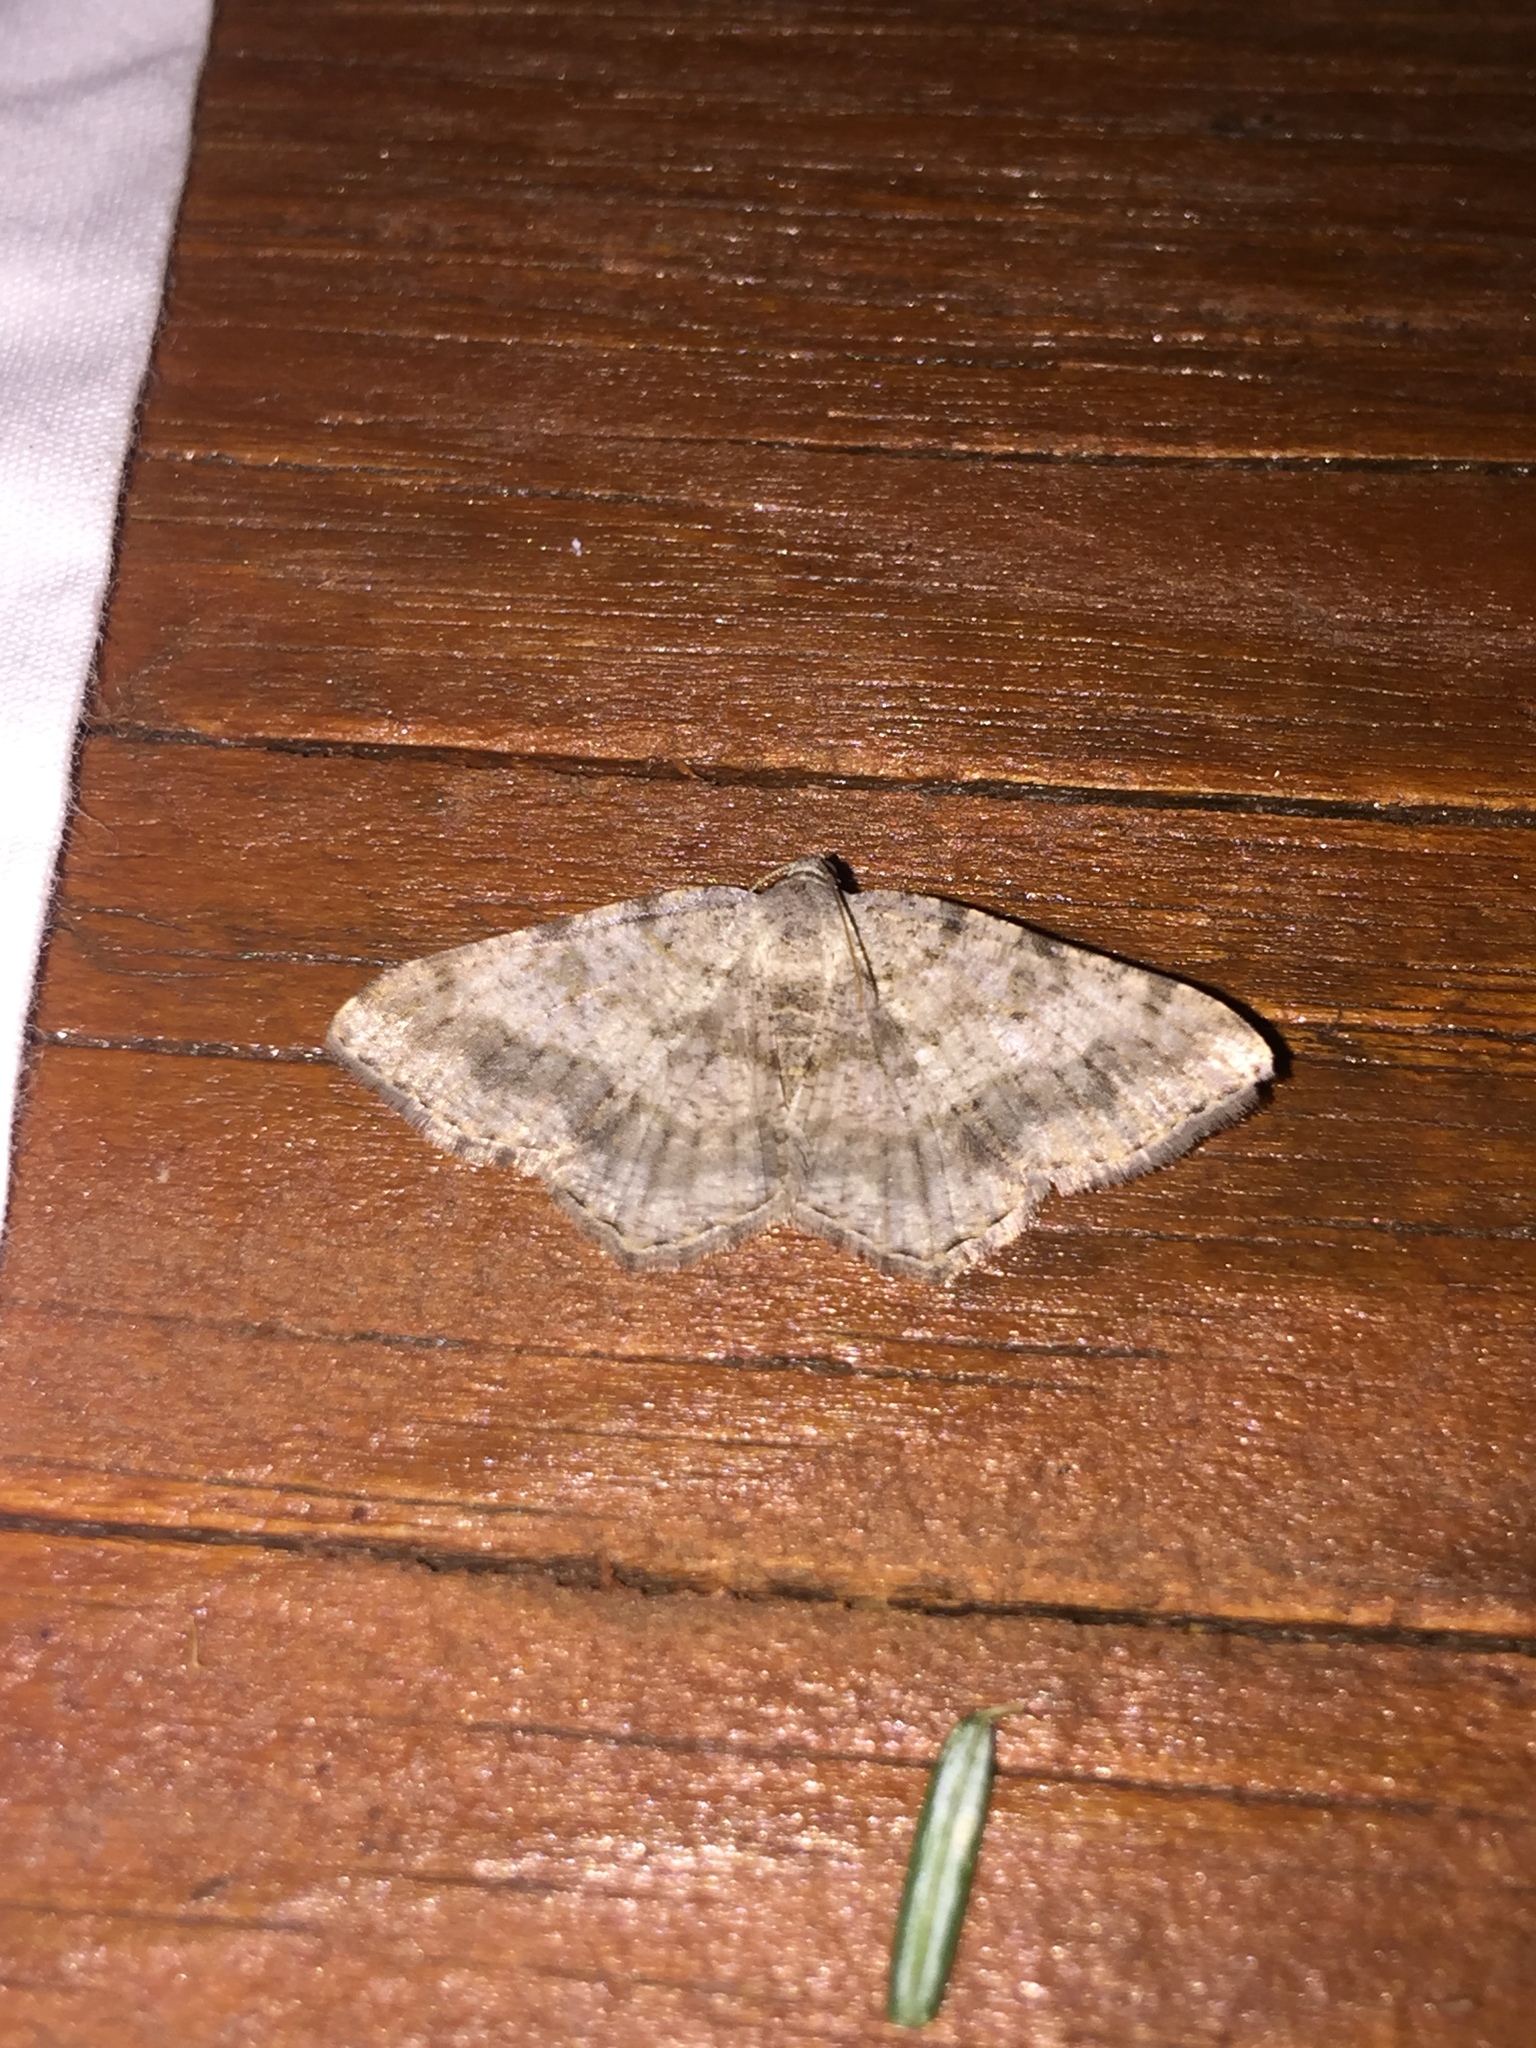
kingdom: Animalia
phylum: Arthropoda
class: Insecta
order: Lepidoptera
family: Geometridae
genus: Digrammia
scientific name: Digrammia ocellinata
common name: Faint-spotted angle
